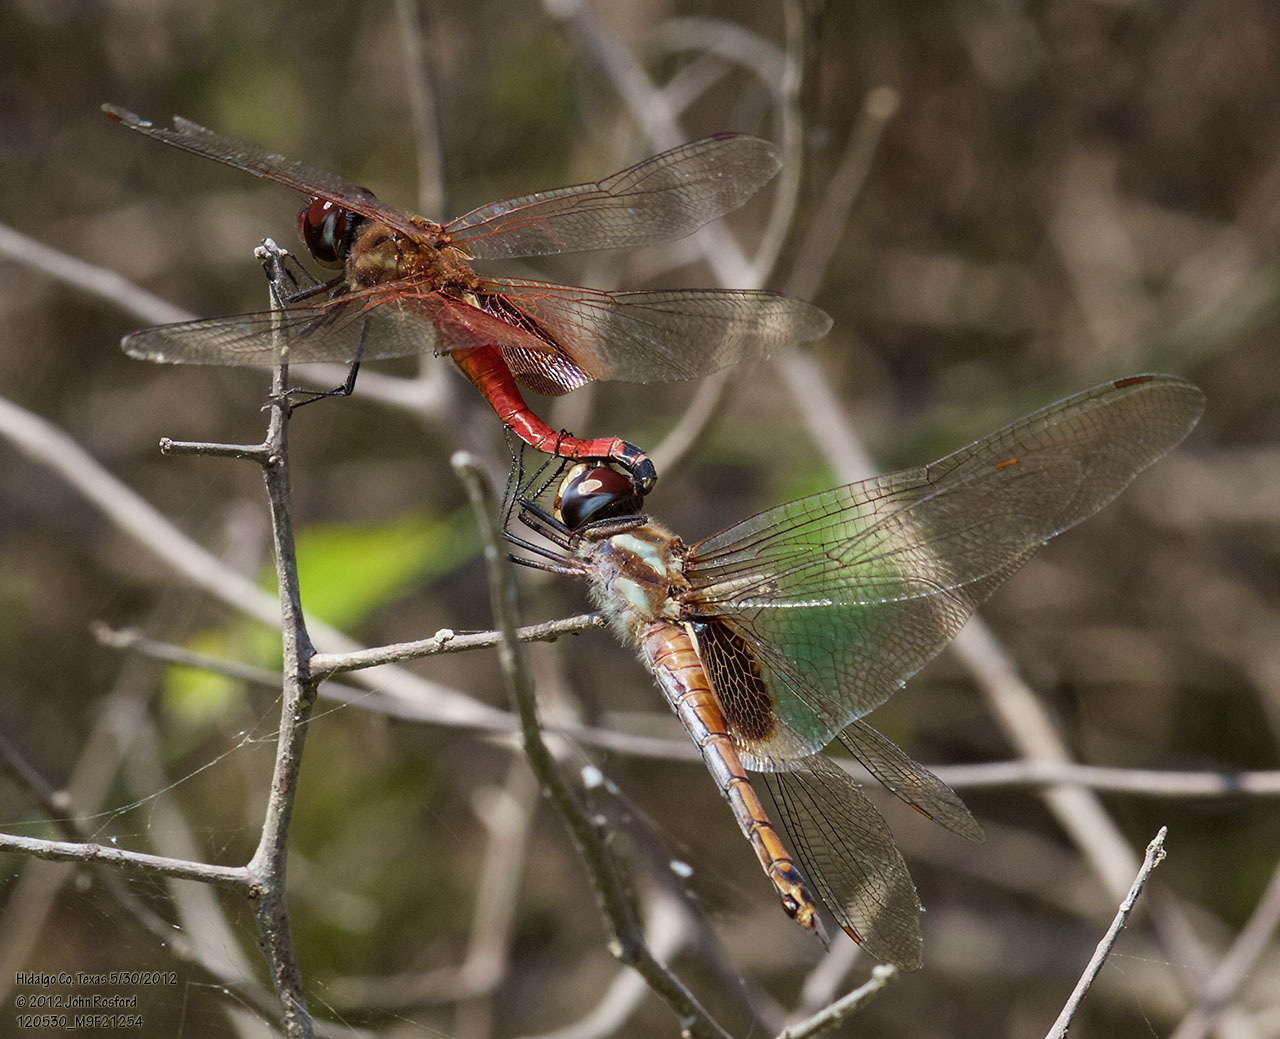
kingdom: Animalia
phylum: Arthropoda
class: Insecta
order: Odonata
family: Libellulidae
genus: Tramea
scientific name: Tramea darwini
